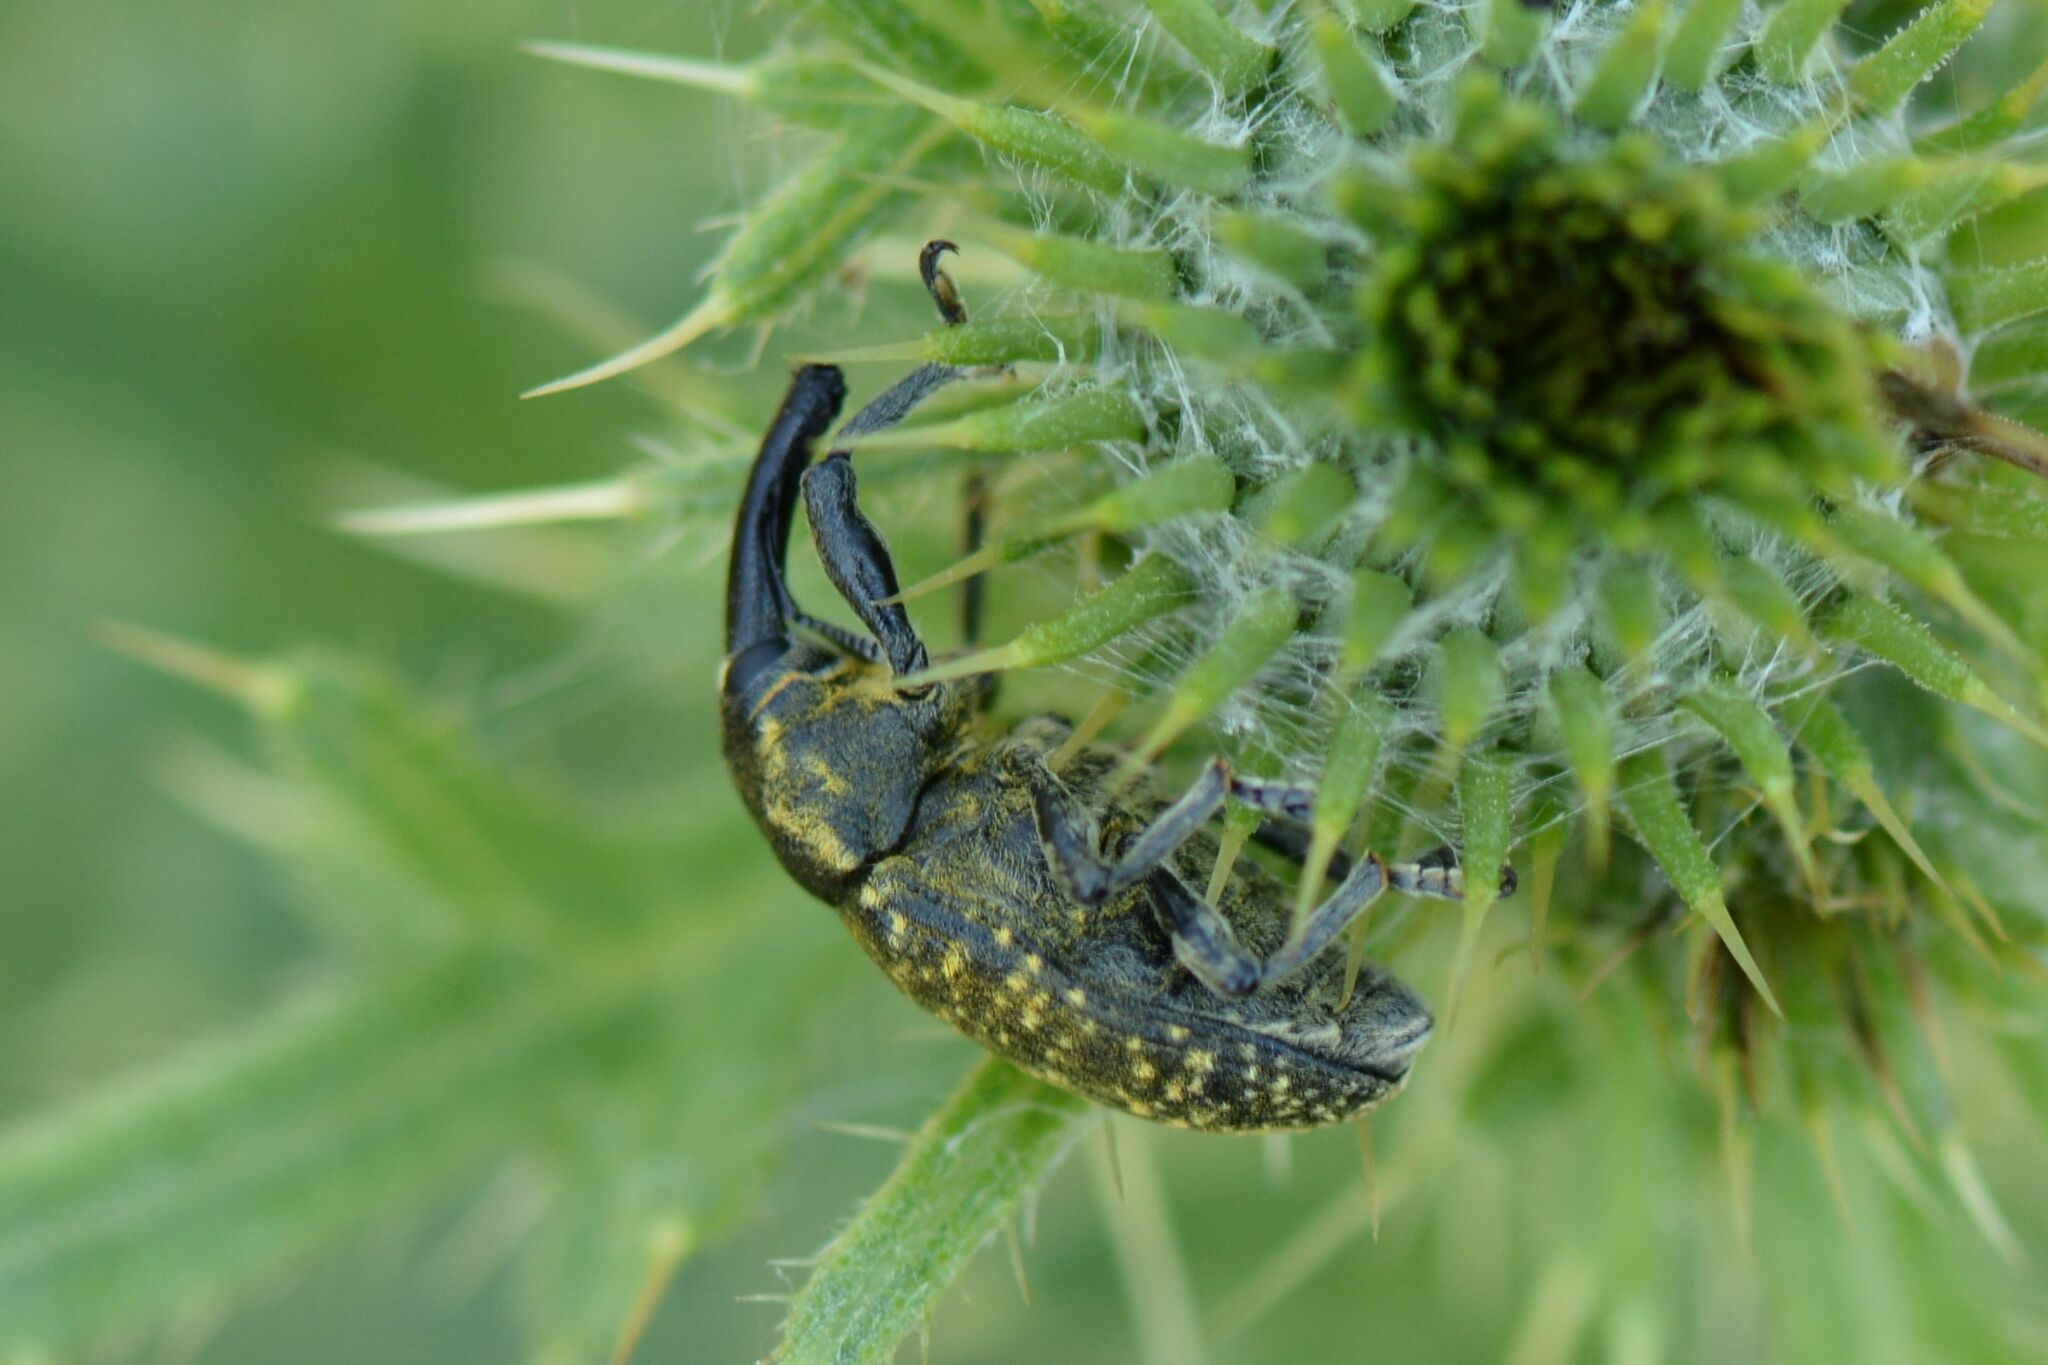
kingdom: Animalia
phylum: Arthropoda
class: Insecta
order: Coleoptera
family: Curculionidae
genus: Larinus
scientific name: Larinus sturnus
